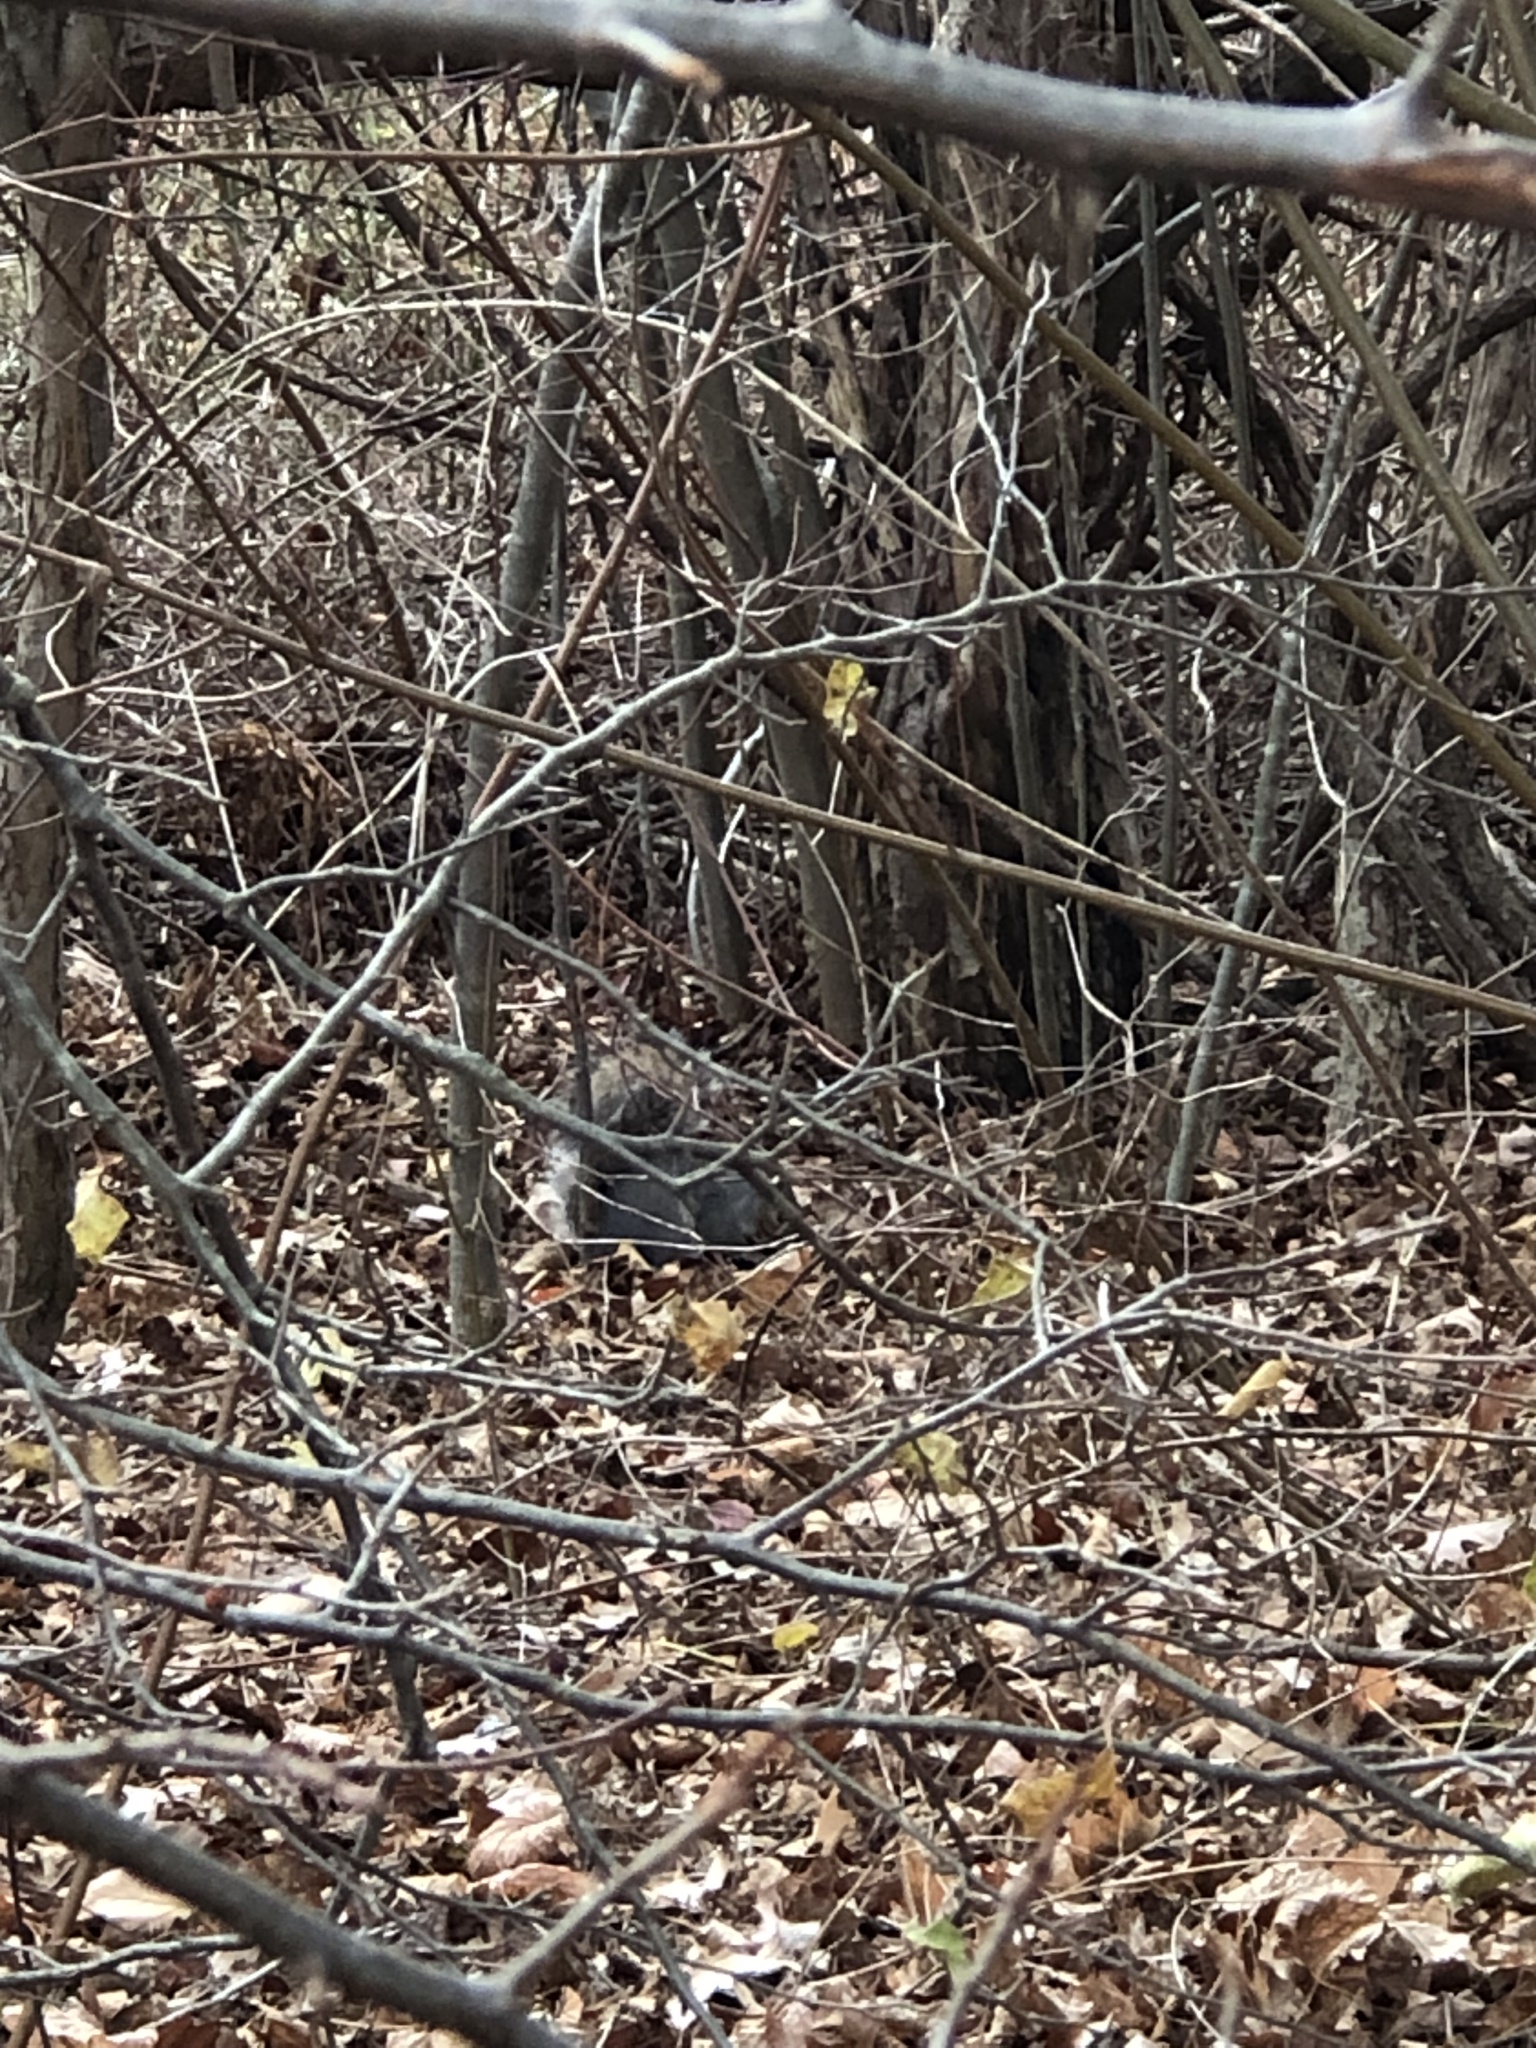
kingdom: Animalia
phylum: Chordata
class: Mammalia
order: Rodentia
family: Sciuridae
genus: Sciurus
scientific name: Sciurus carolinensis
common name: Eastern gray squirrel
